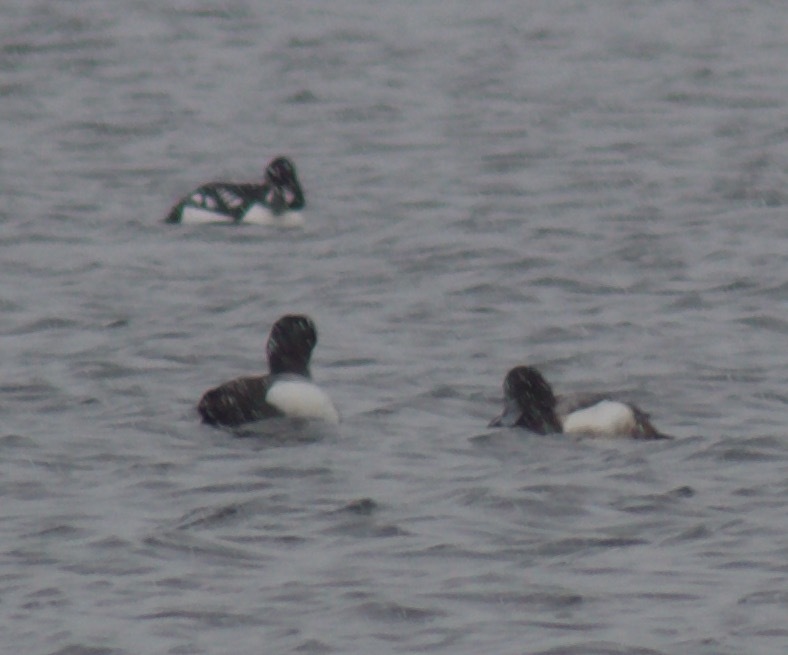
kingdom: Animalia
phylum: Chordata
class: Aves
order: Anseriformes
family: Anatidae
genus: Aythya
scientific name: Aythya marila
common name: Greater scaup
